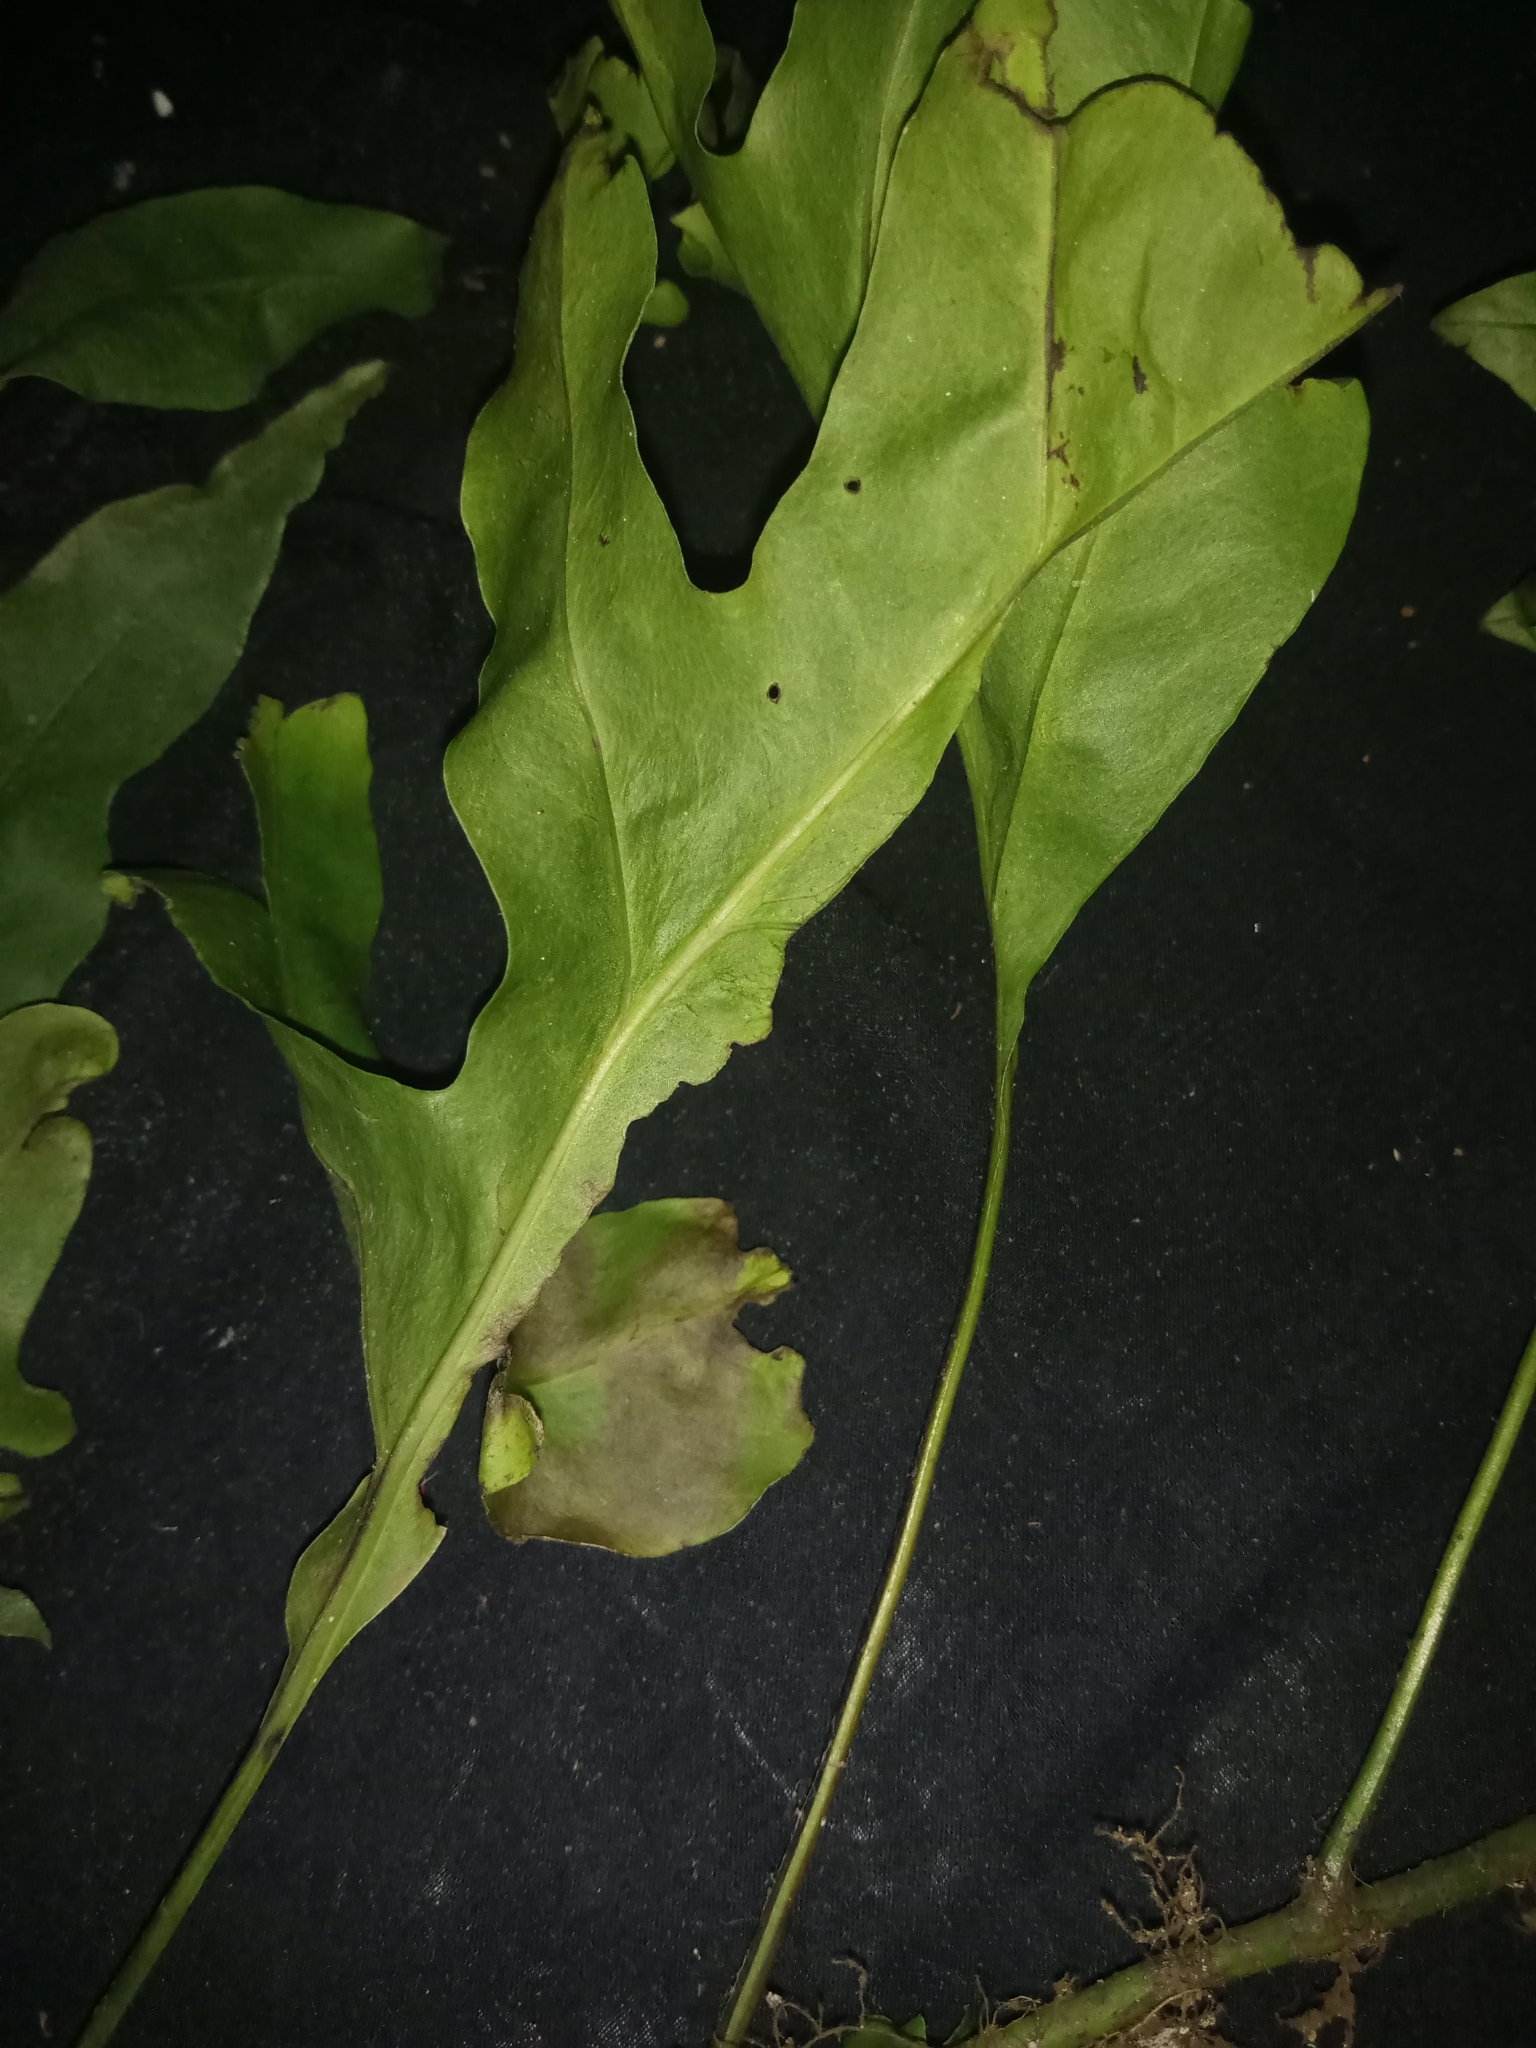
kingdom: Plantae
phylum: Tracheophyta
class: Polypodiopsida
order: Polypodiales
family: Polypodiaceae
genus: Microsorum
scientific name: Microsorum scolopendria
